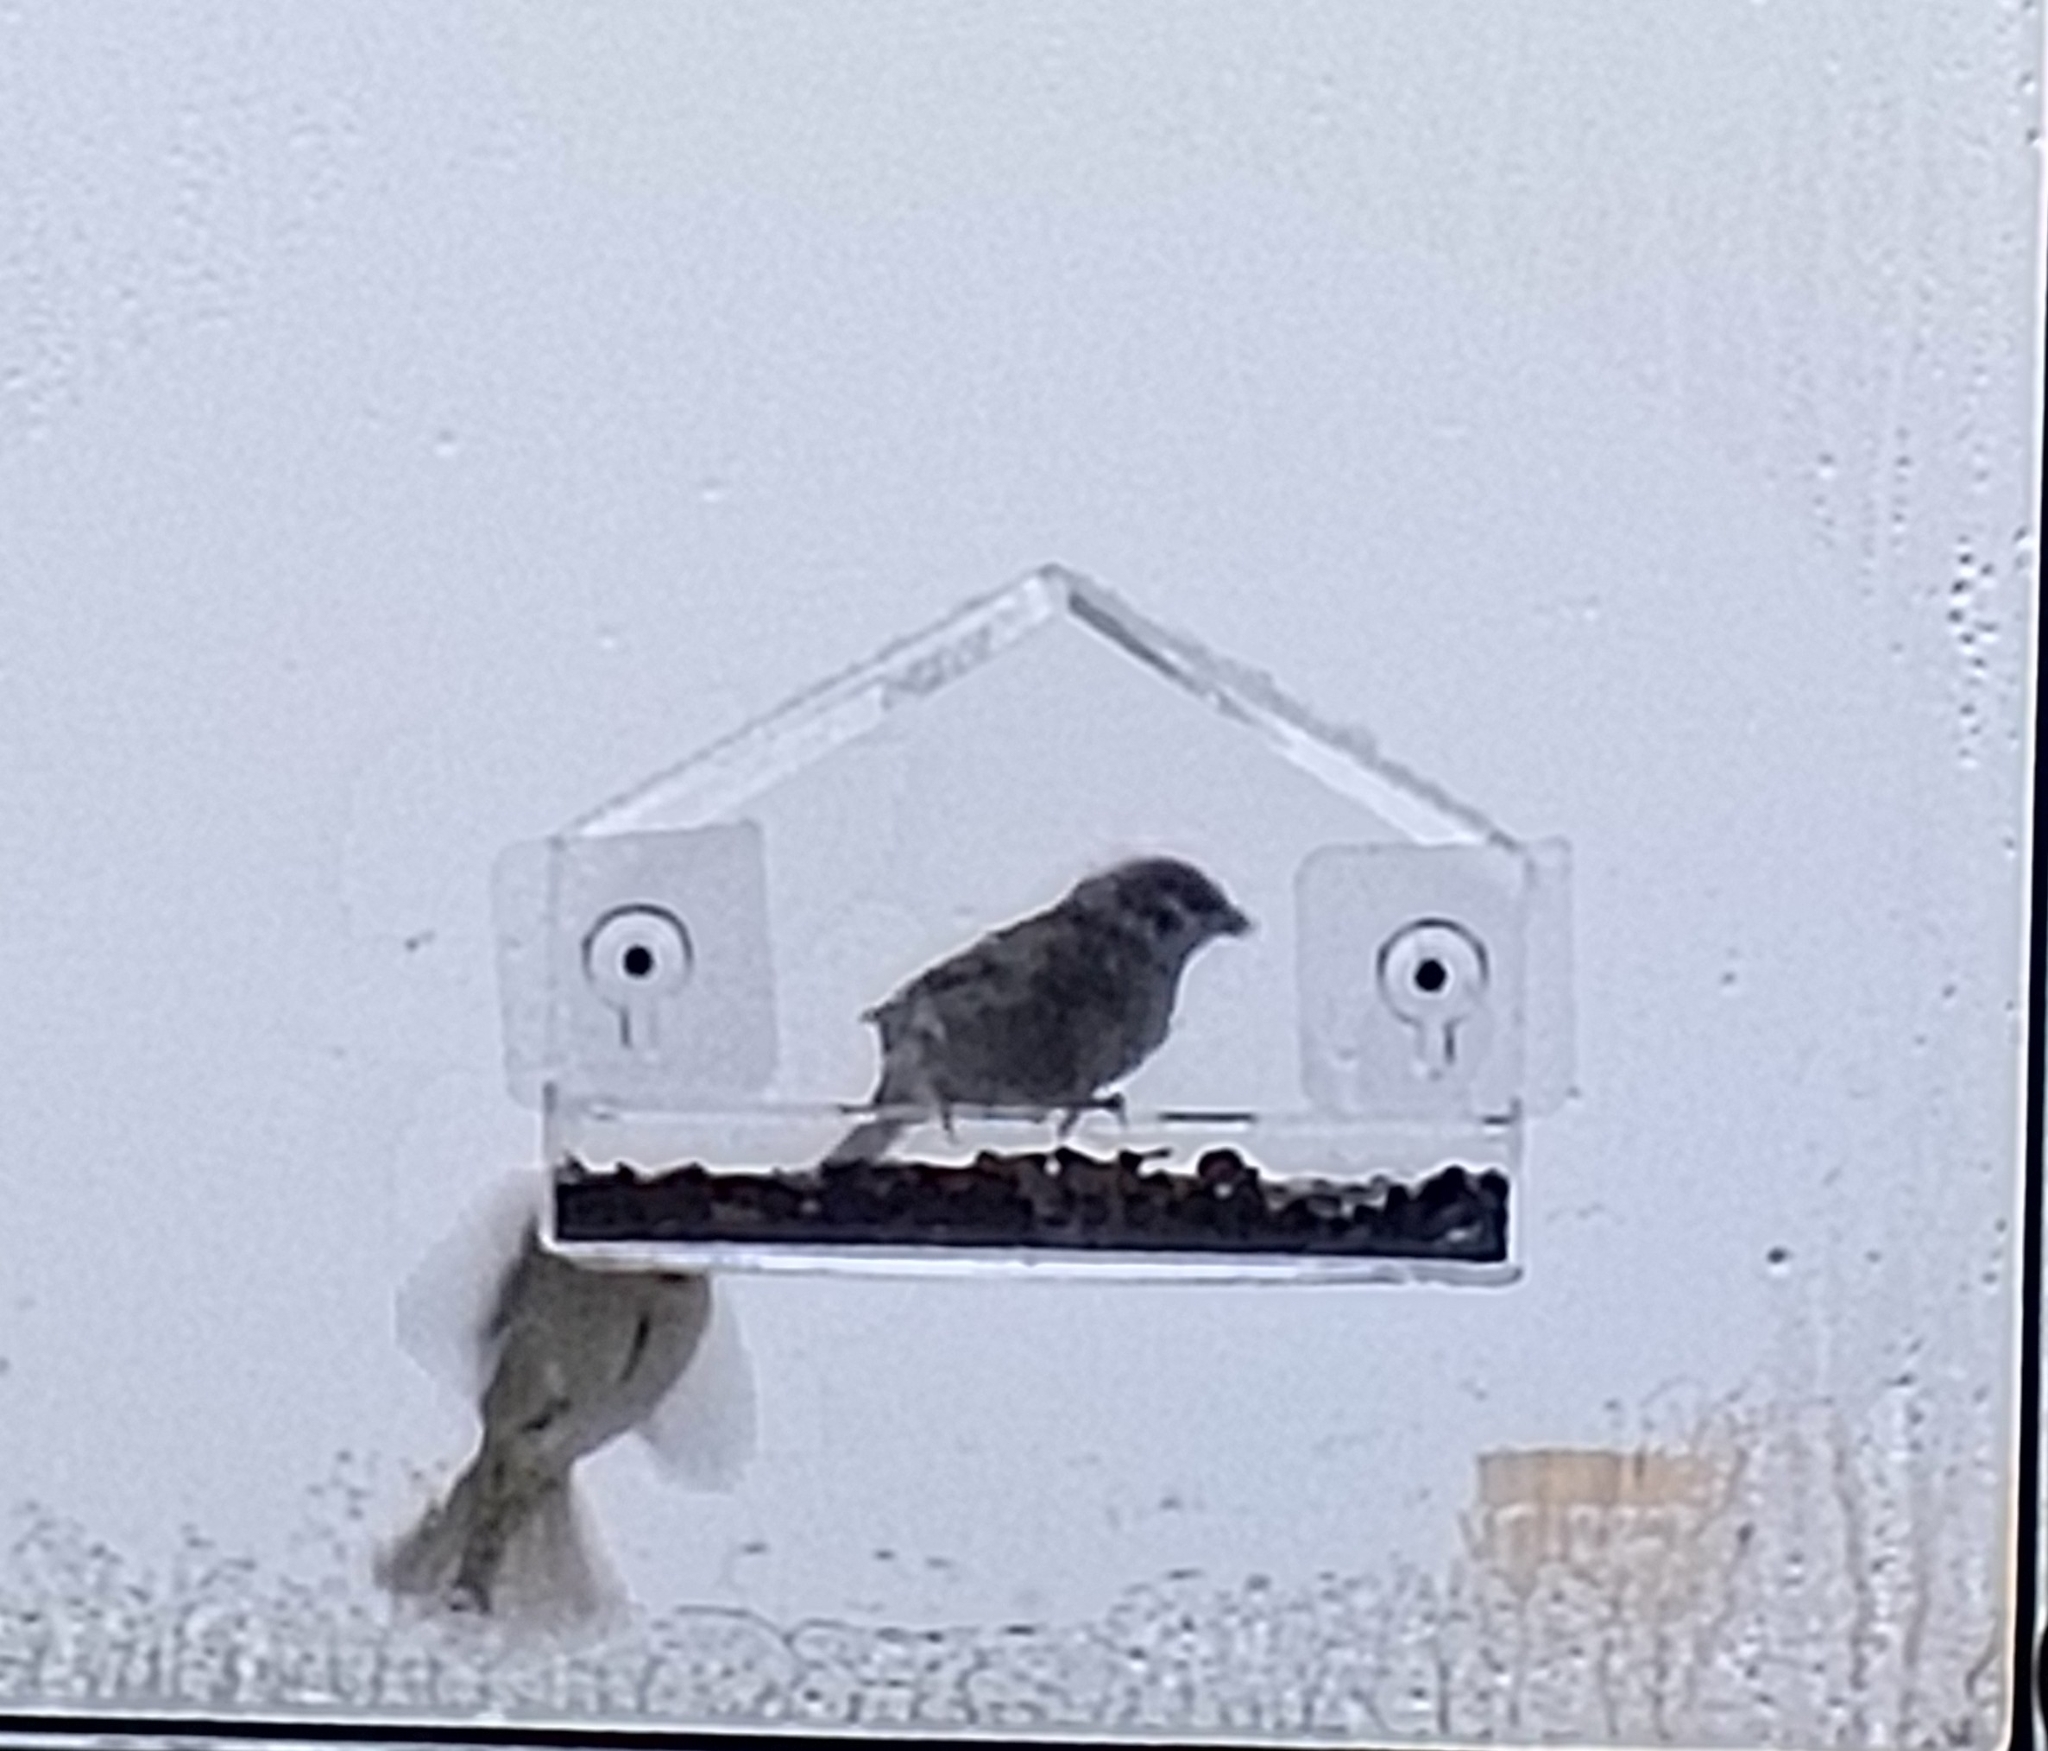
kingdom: Animalia
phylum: Chordata
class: Aves
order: Passeriformes
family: Passeridae
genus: Passer
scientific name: Passer montanus
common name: Eurasian tree sparrow
